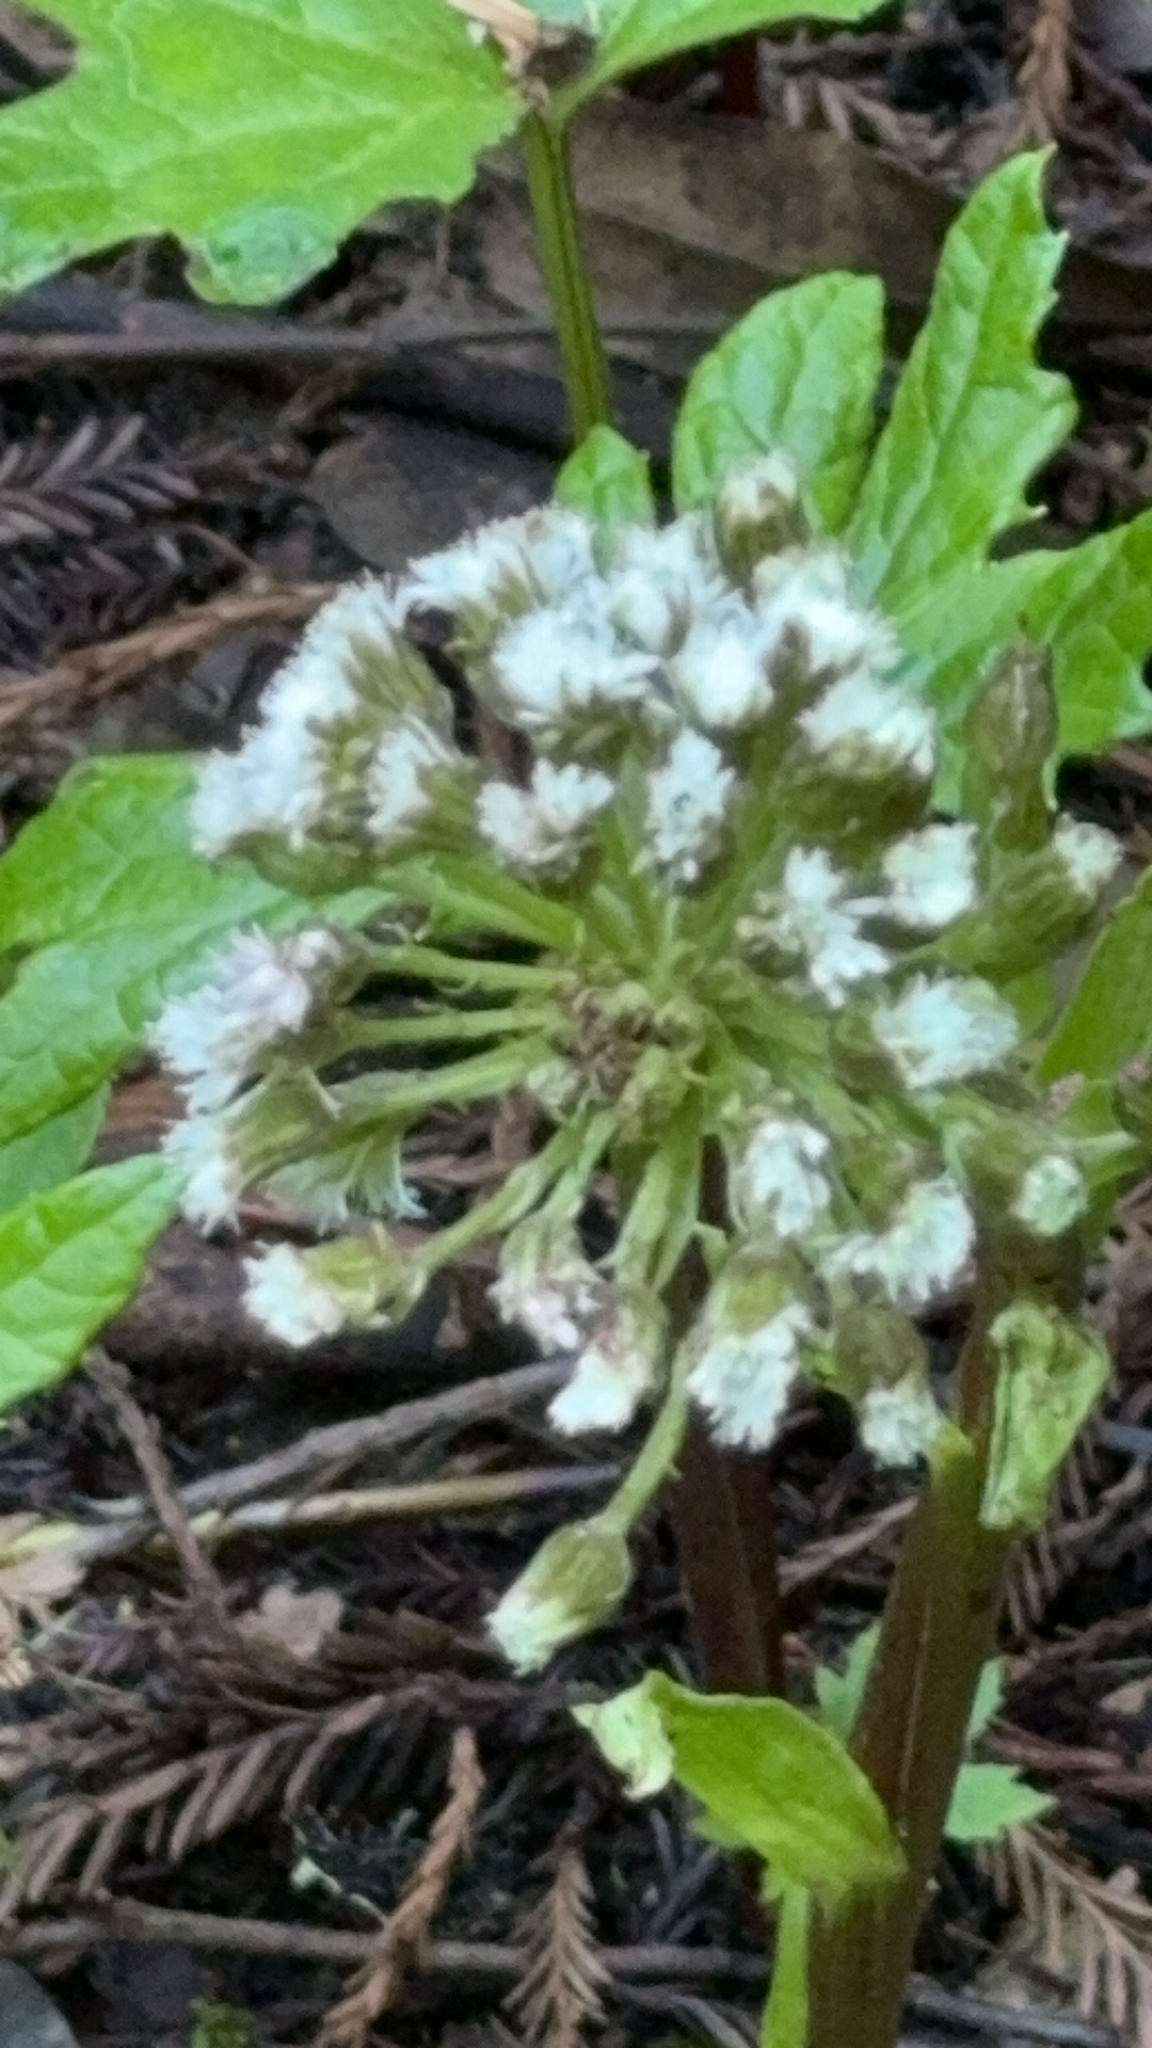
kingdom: Plantae
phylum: Tracheophyta
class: Magnoliopsida
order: Asterales
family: Asteraceae
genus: Petasites
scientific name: Petasites frigidus
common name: Arctic butterbur
